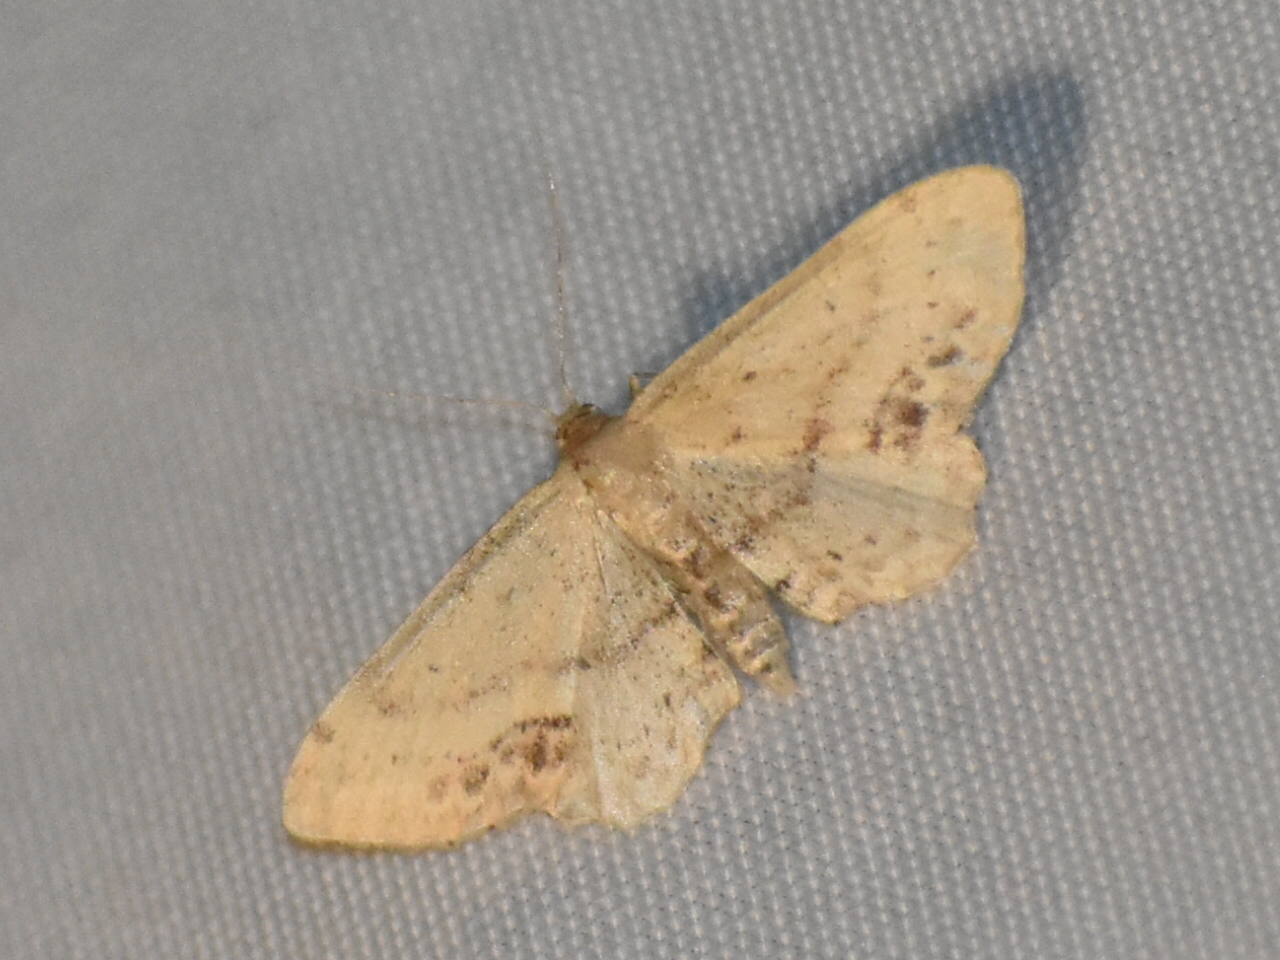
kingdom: Animalia
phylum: Arthropoda
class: Insecta
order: Lepidoptera
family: Geometridae
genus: Idaea
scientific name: Idaea dimidiata
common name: Single-dotted wave
